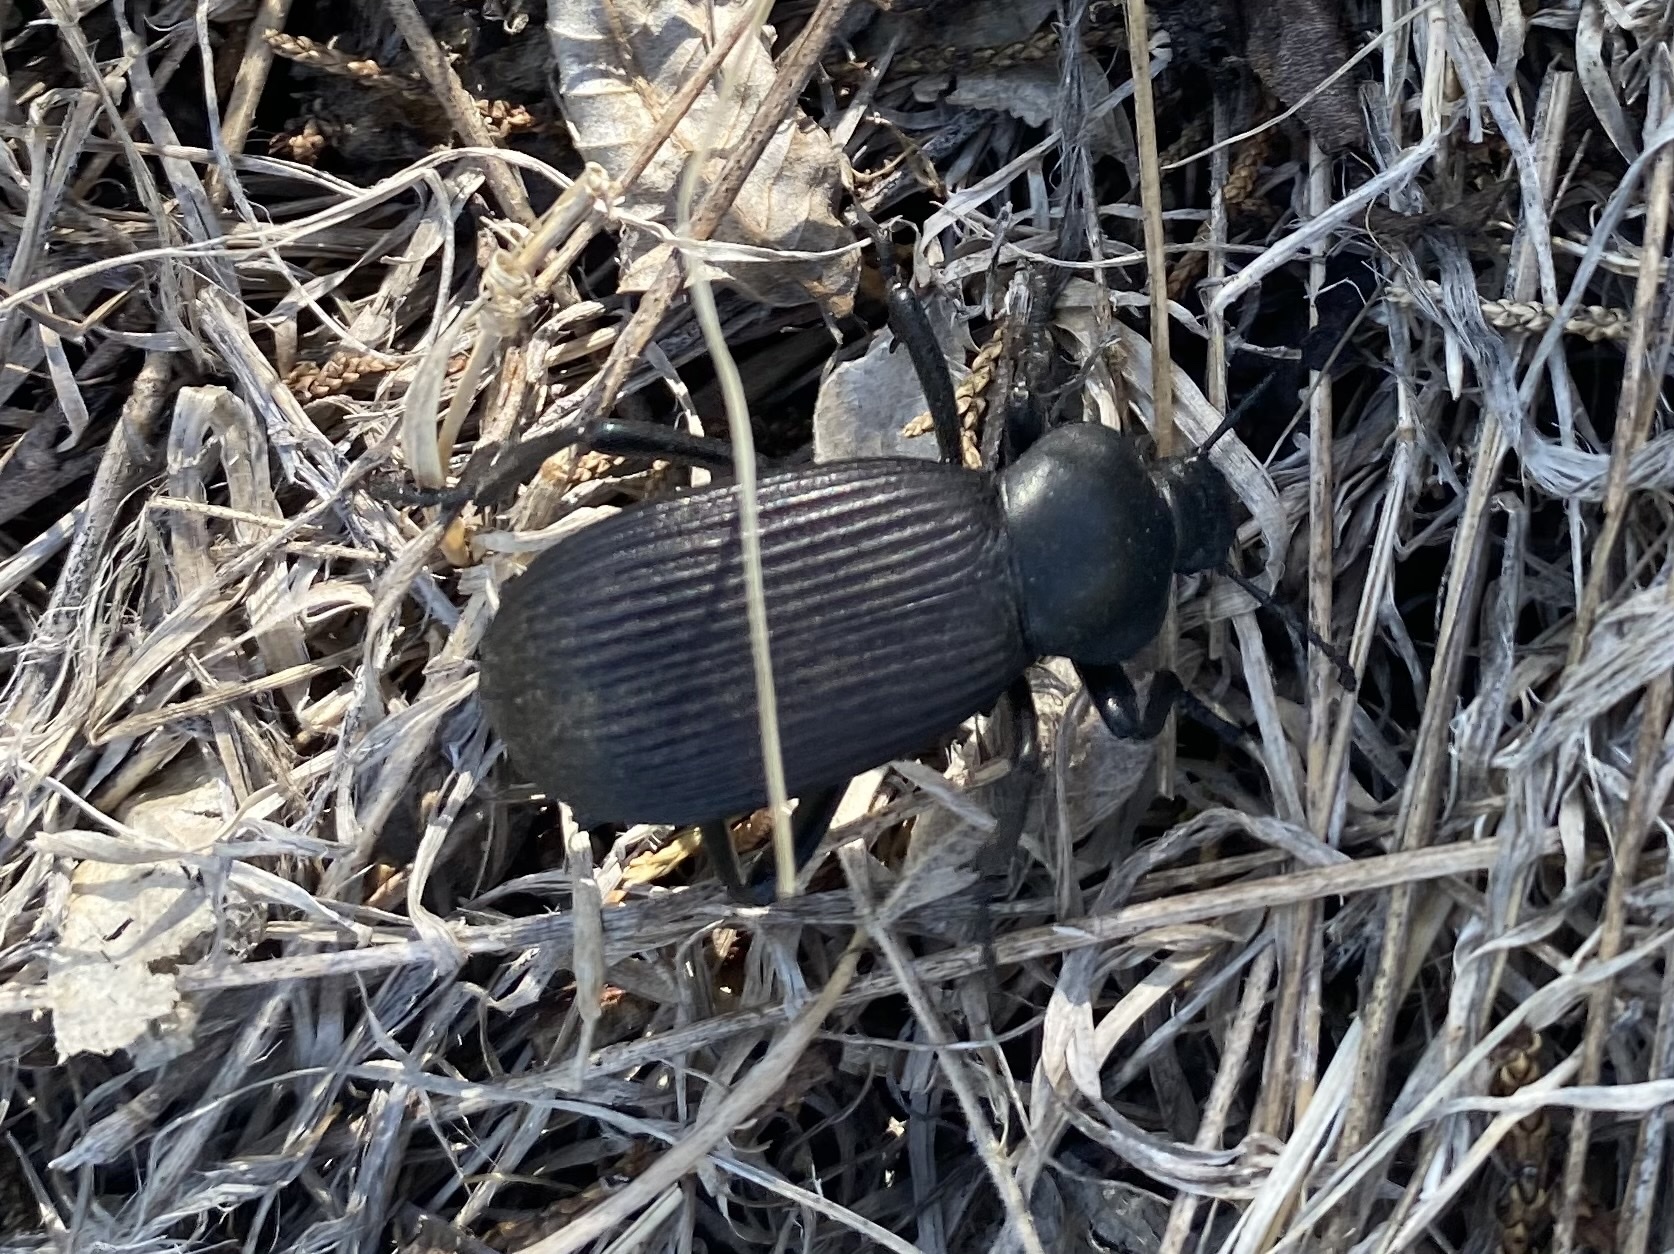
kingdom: Animalia
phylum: Arthropoda
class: Insecta
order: Coleoptera
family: Tenebrionidae
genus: Eleodes
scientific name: Eleodes obscura
